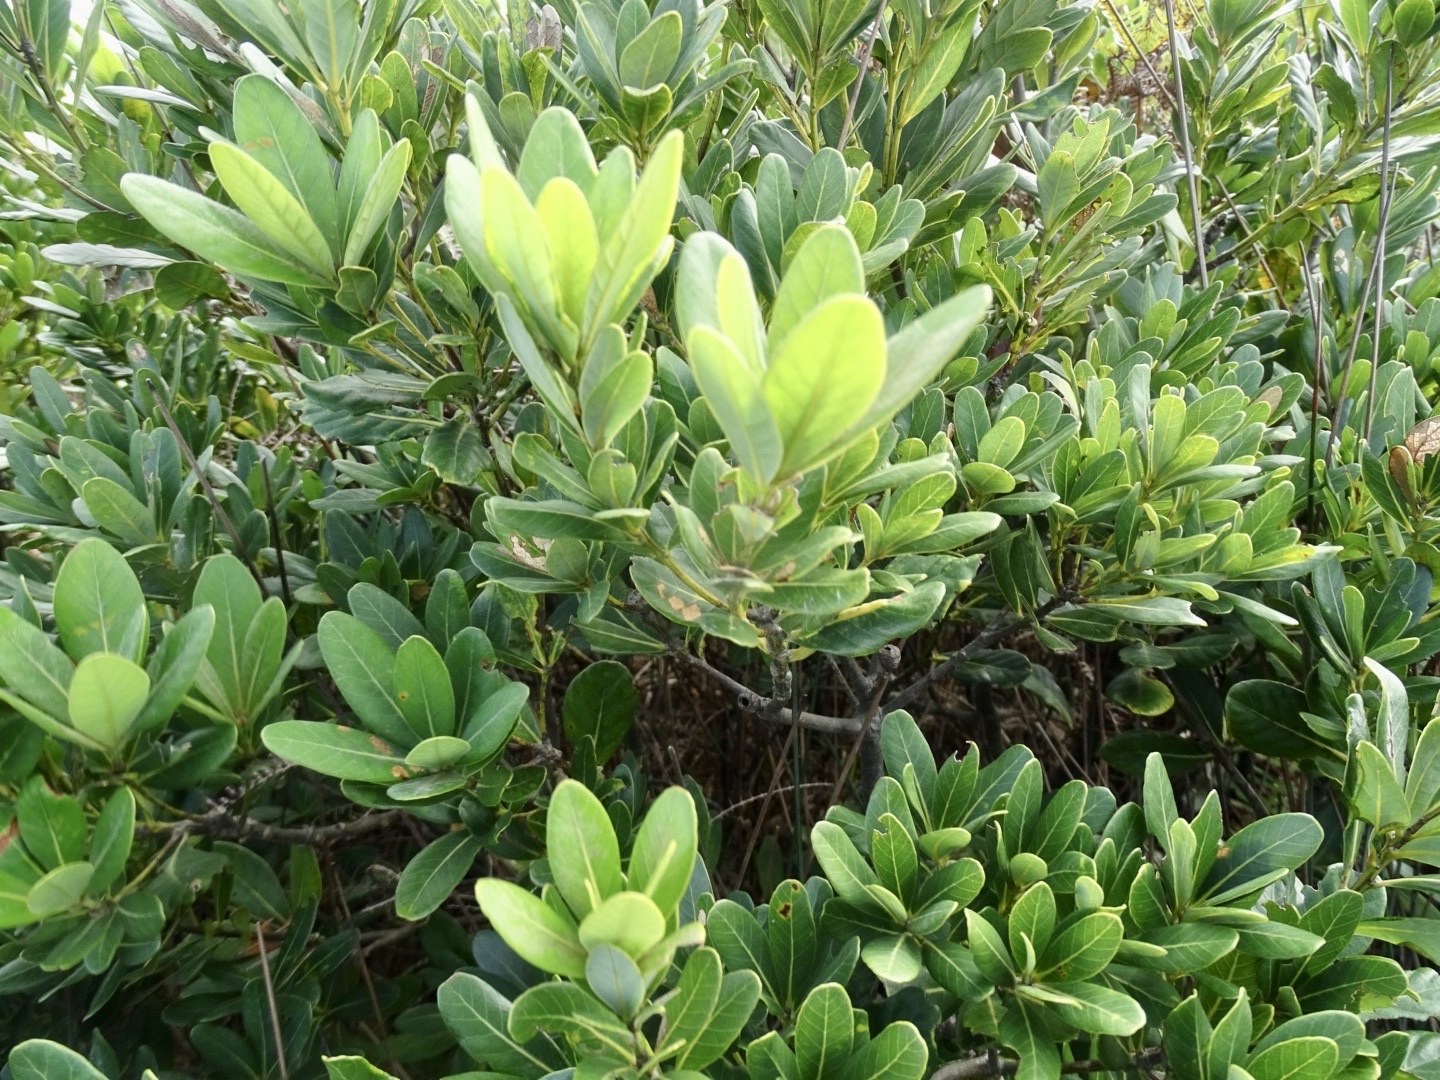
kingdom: Plantae
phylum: Tracheophyta
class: Magnoliopsida
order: Fagales
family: Fagaceae
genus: Quercus
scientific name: Quercus championii
